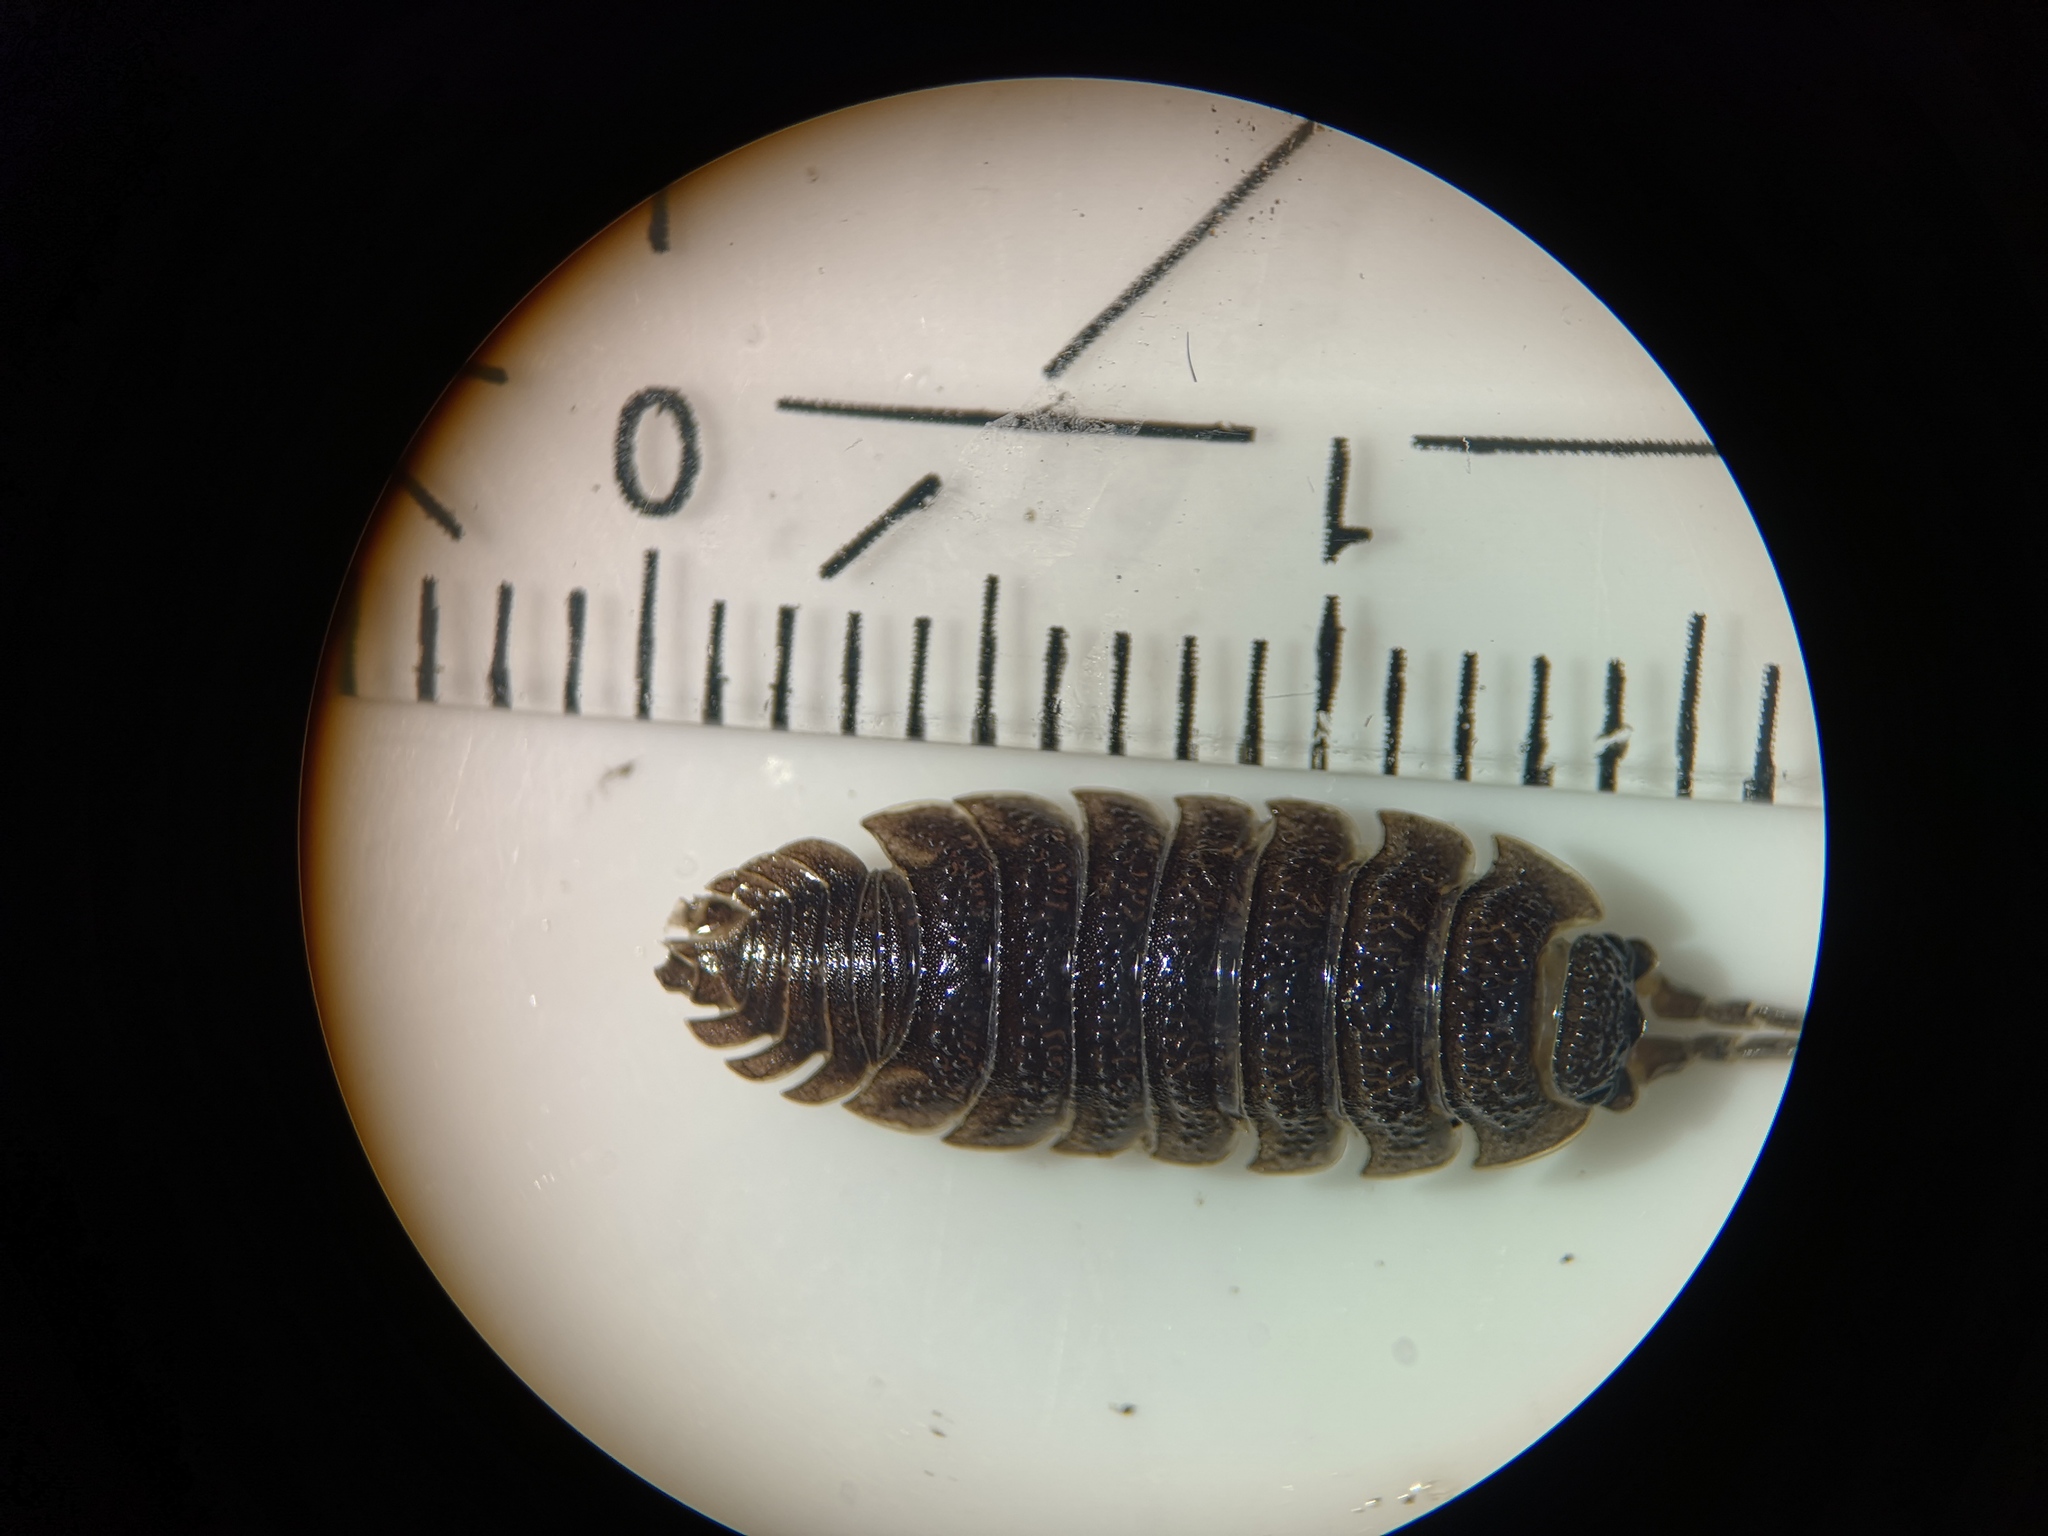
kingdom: Animalia
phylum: Arthropoda
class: Malacostraca
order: Isopoda
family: Porcellionidae
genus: Porcellio
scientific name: Porcellio scaber
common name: Common rough woodlouse
